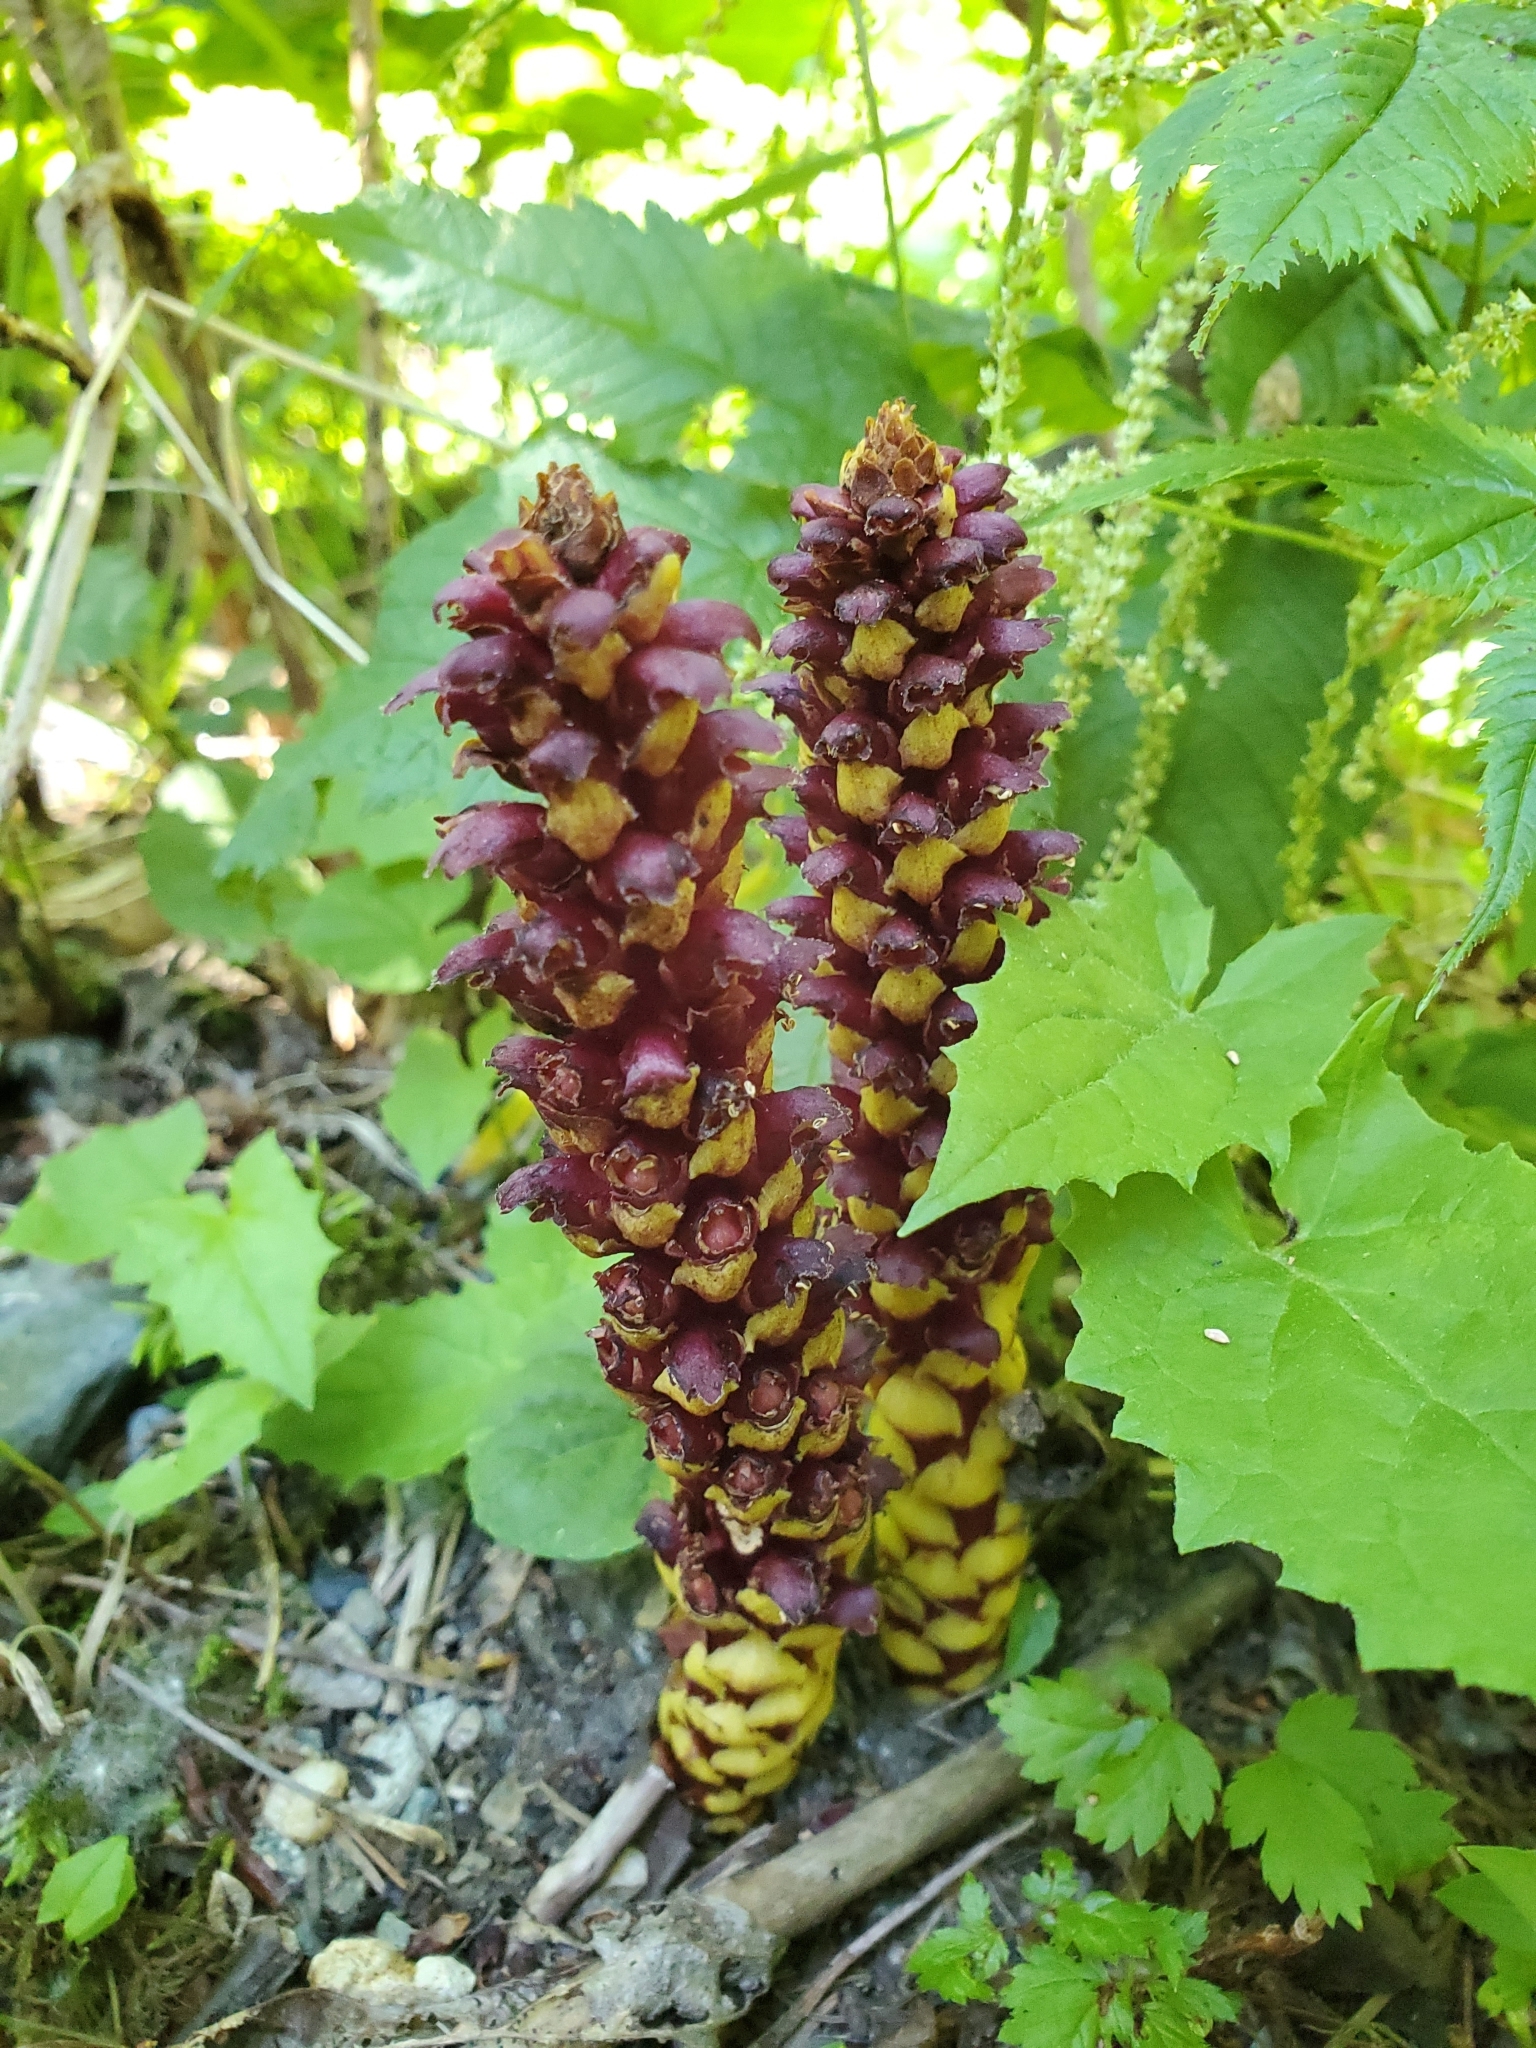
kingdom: Plantae
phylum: Tracheophyta
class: Magnoliopsida
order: Lamiales
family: Orobanchaceae
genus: Boschniakia
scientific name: Boschniakia rossica
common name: Poque
